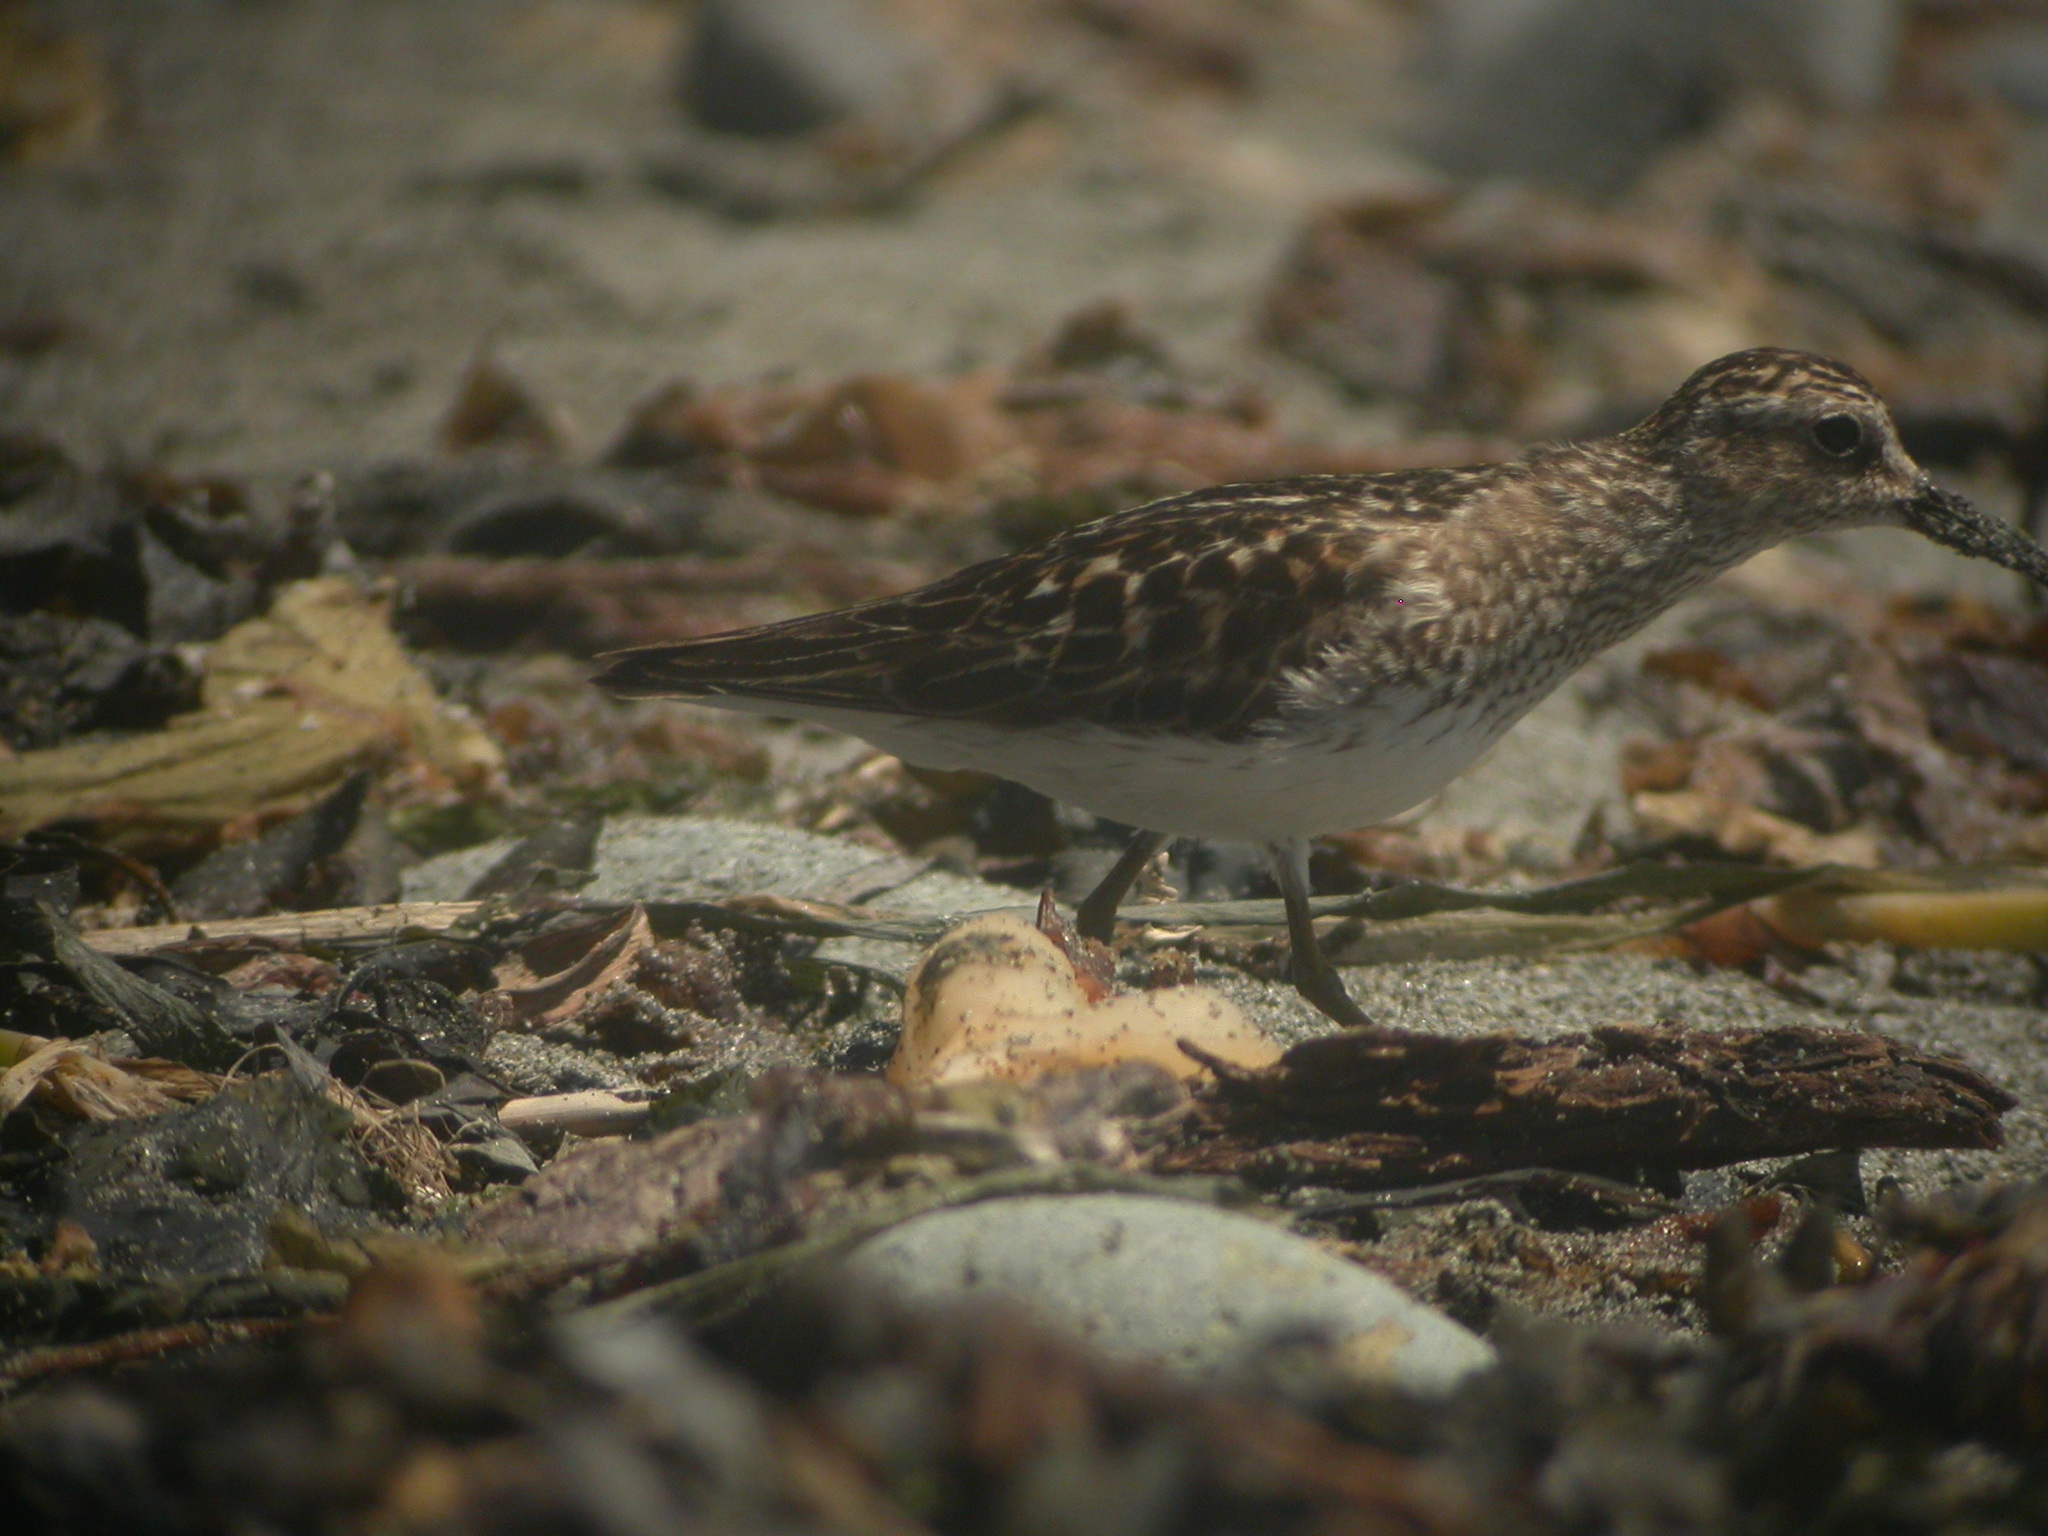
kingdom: Animalia
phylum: Chordata
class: Aves
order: Charadriiformes
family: Scolopacidae
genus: Calidris
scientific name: Calidris minutilla
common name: Least sandpiper
